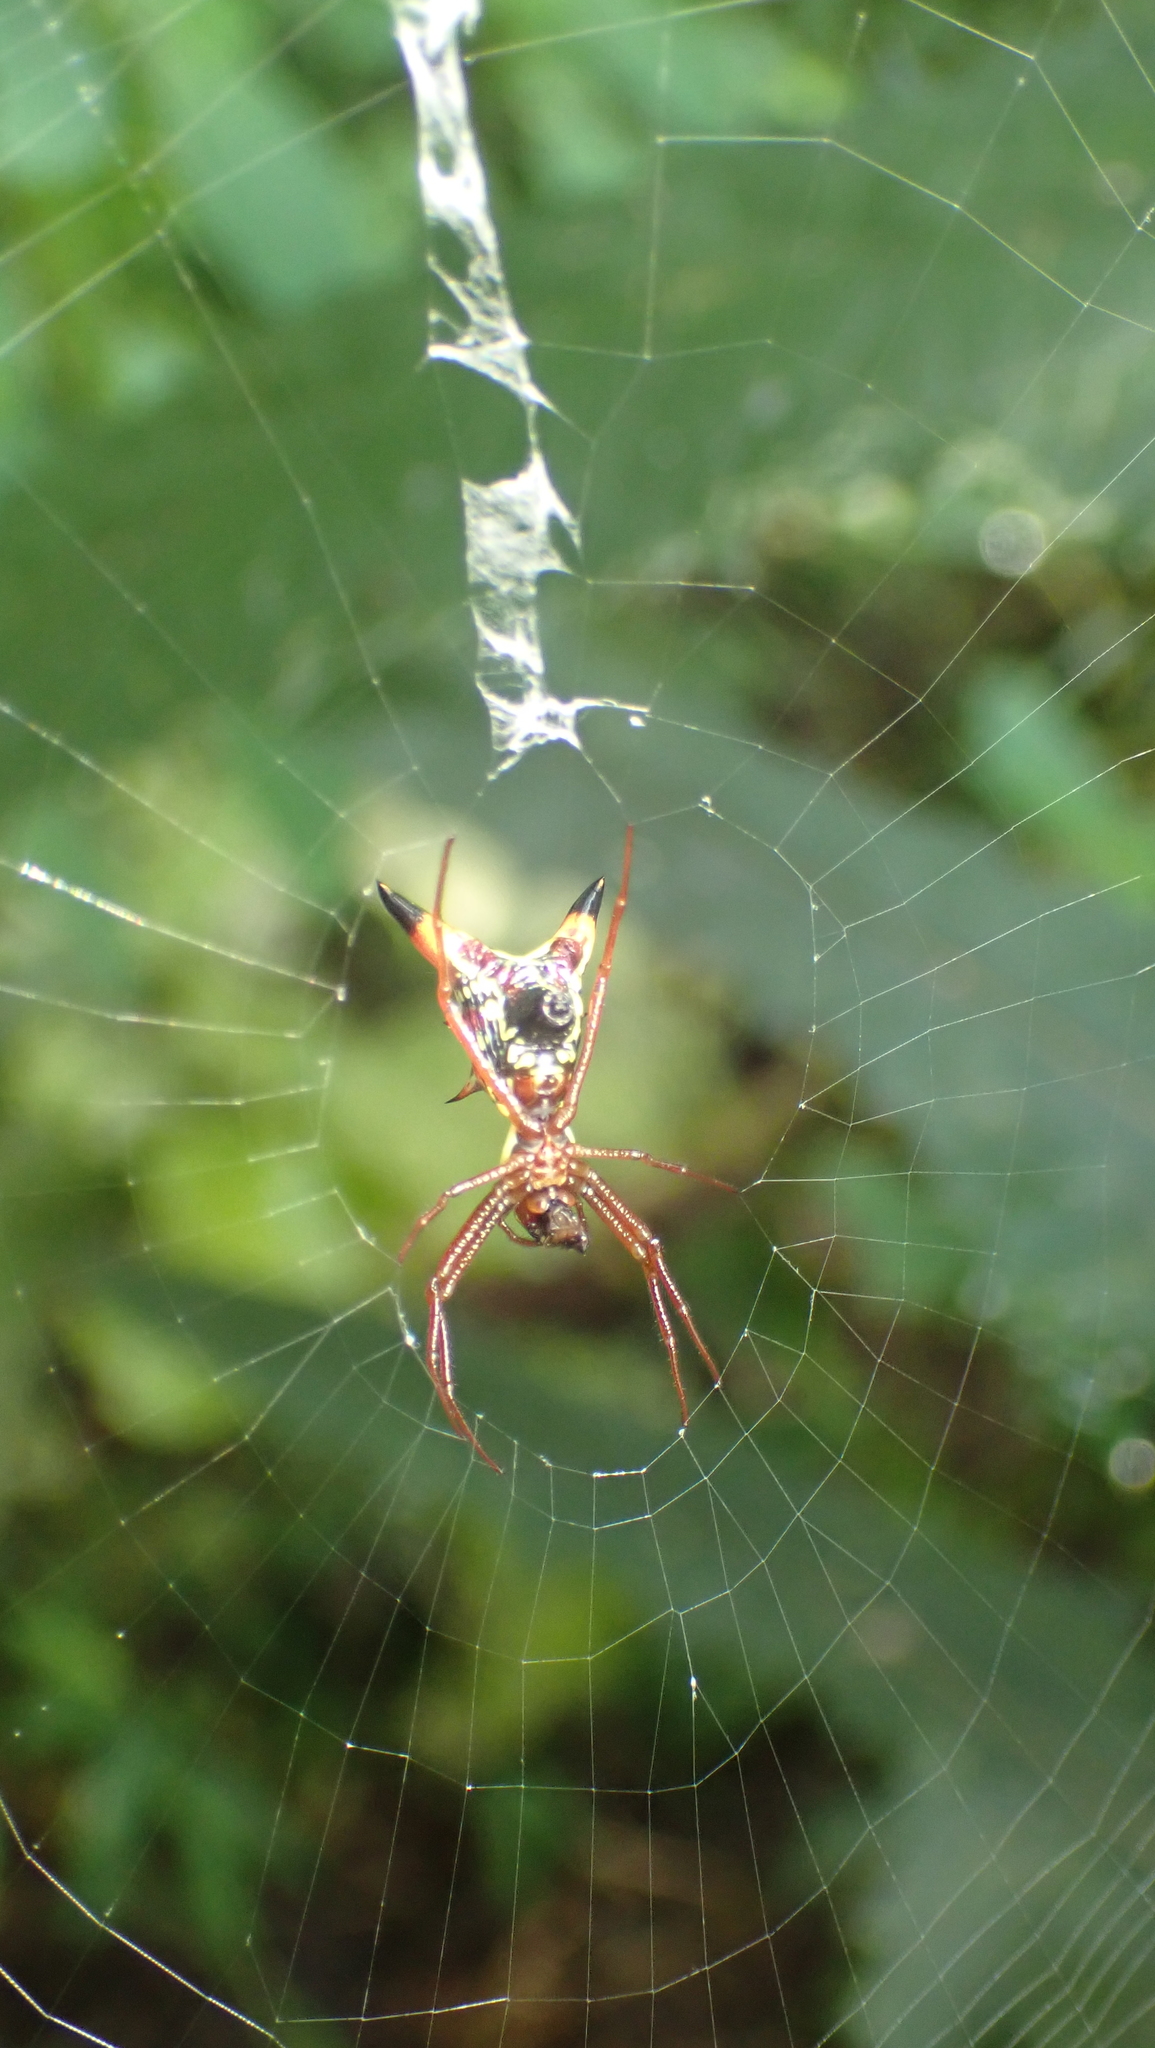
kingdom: Animalia
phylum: Arthropoda
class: Arachnida
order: Araneae
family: Araneidae
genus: Micrathena
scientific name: Micrathena sagittata
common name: Orb weavers
